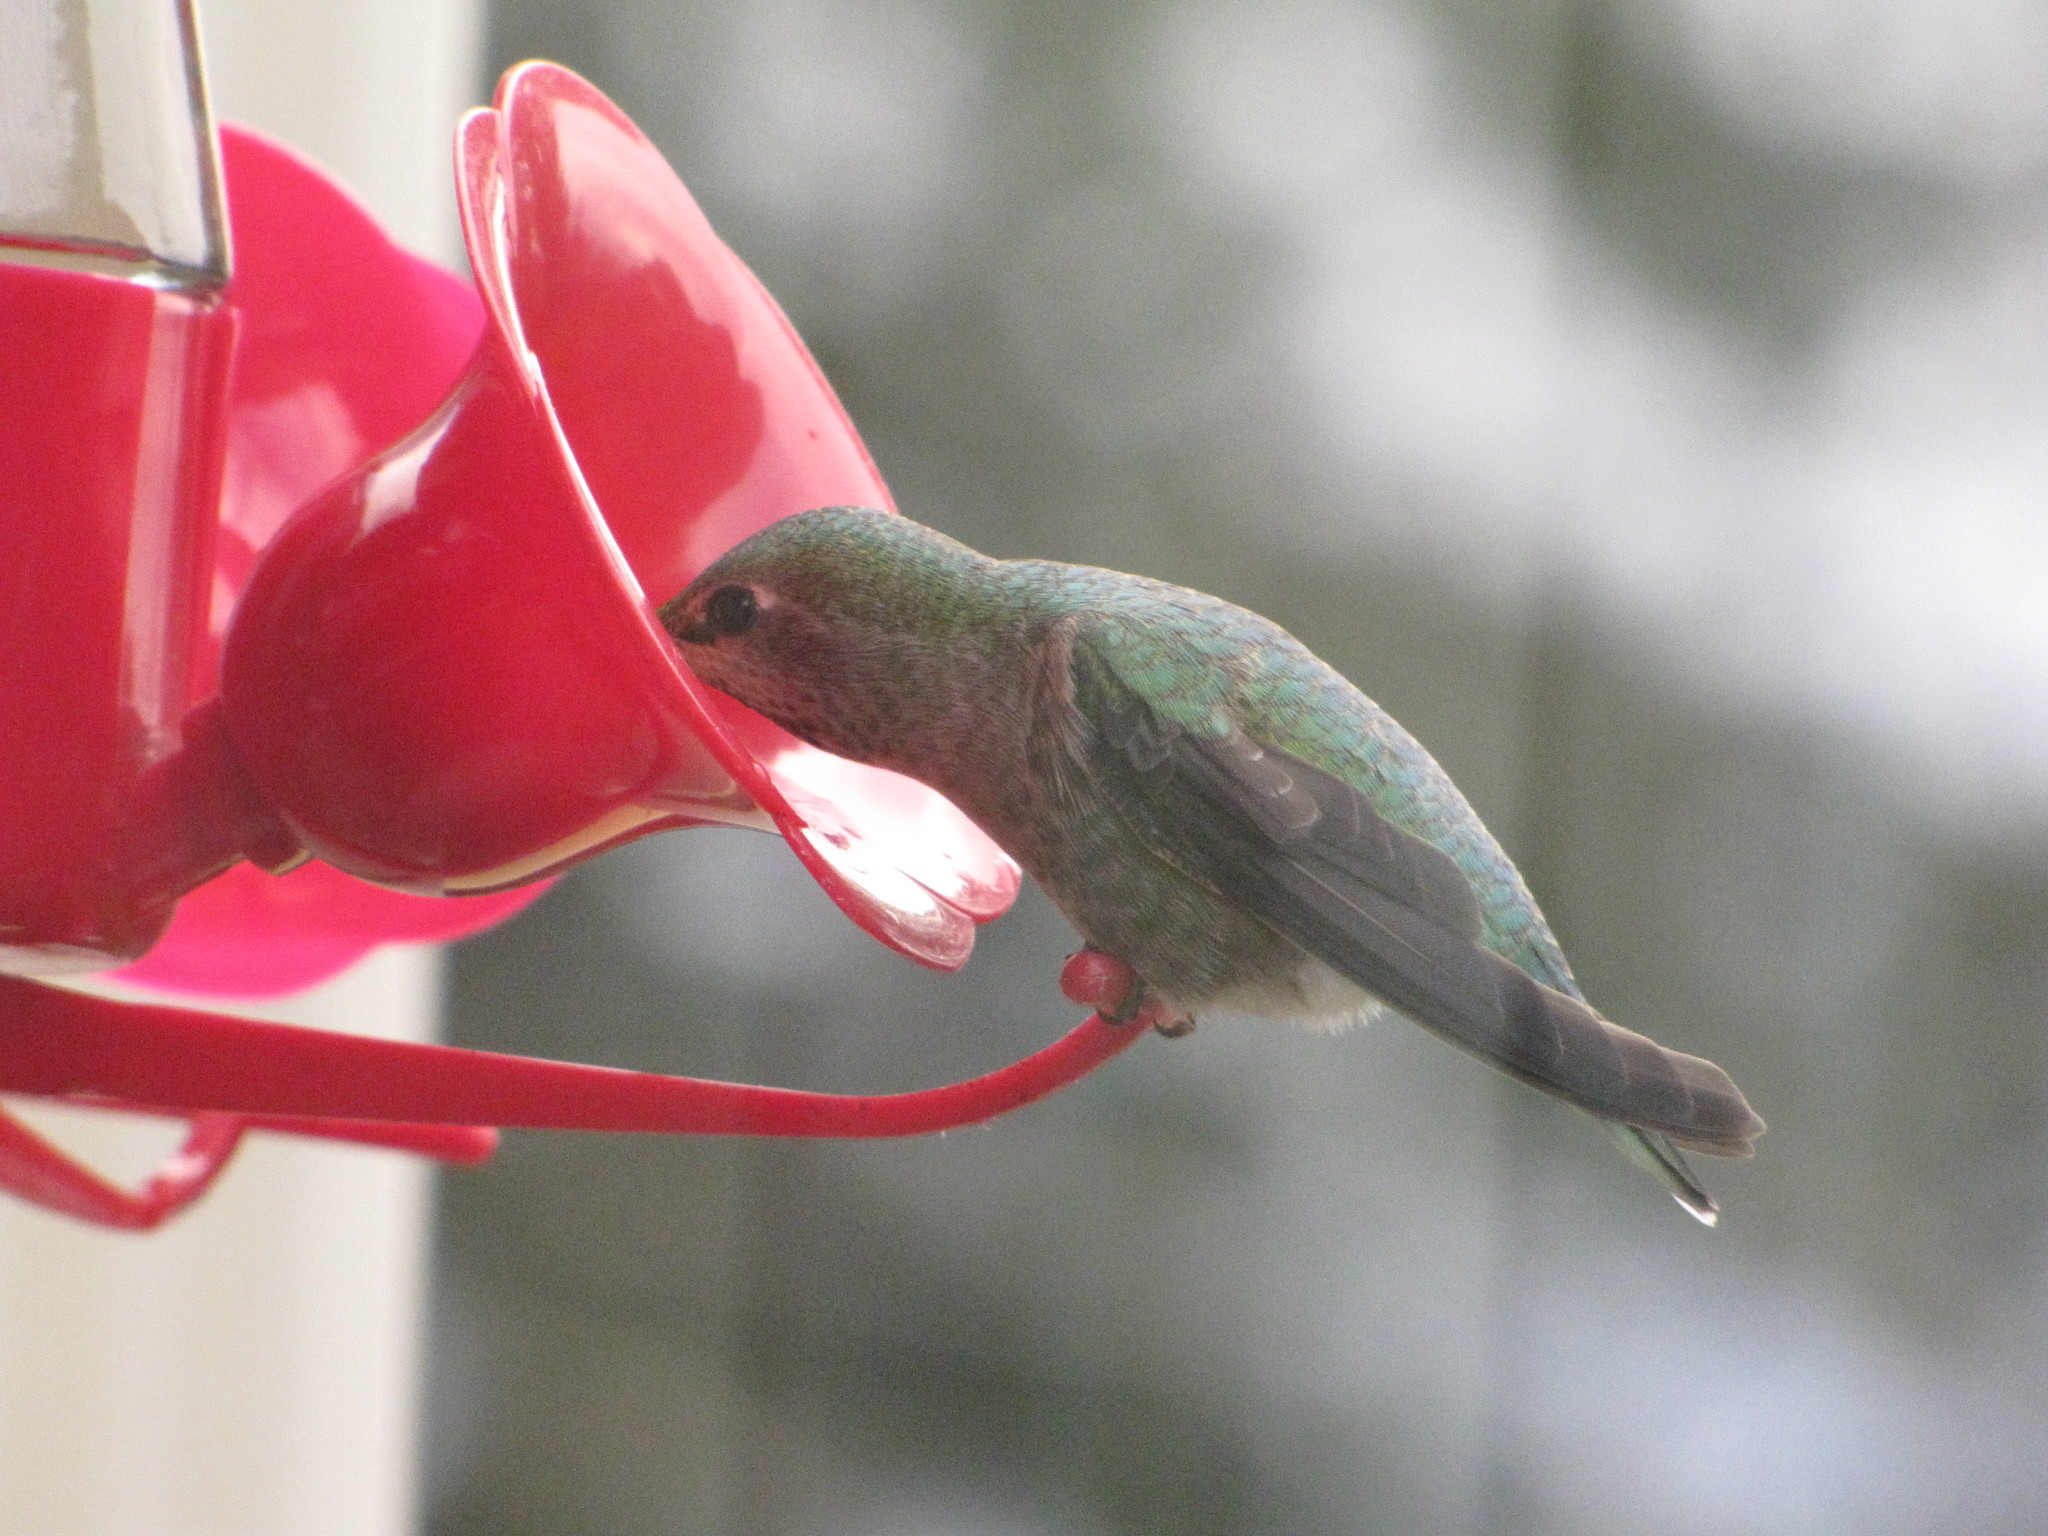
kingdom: Animalia
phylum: Chordata
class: Aves
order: Apodiformes
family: Trochilidae
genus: Calypte
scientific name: Calypte anna
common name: Anna's hummingbird
